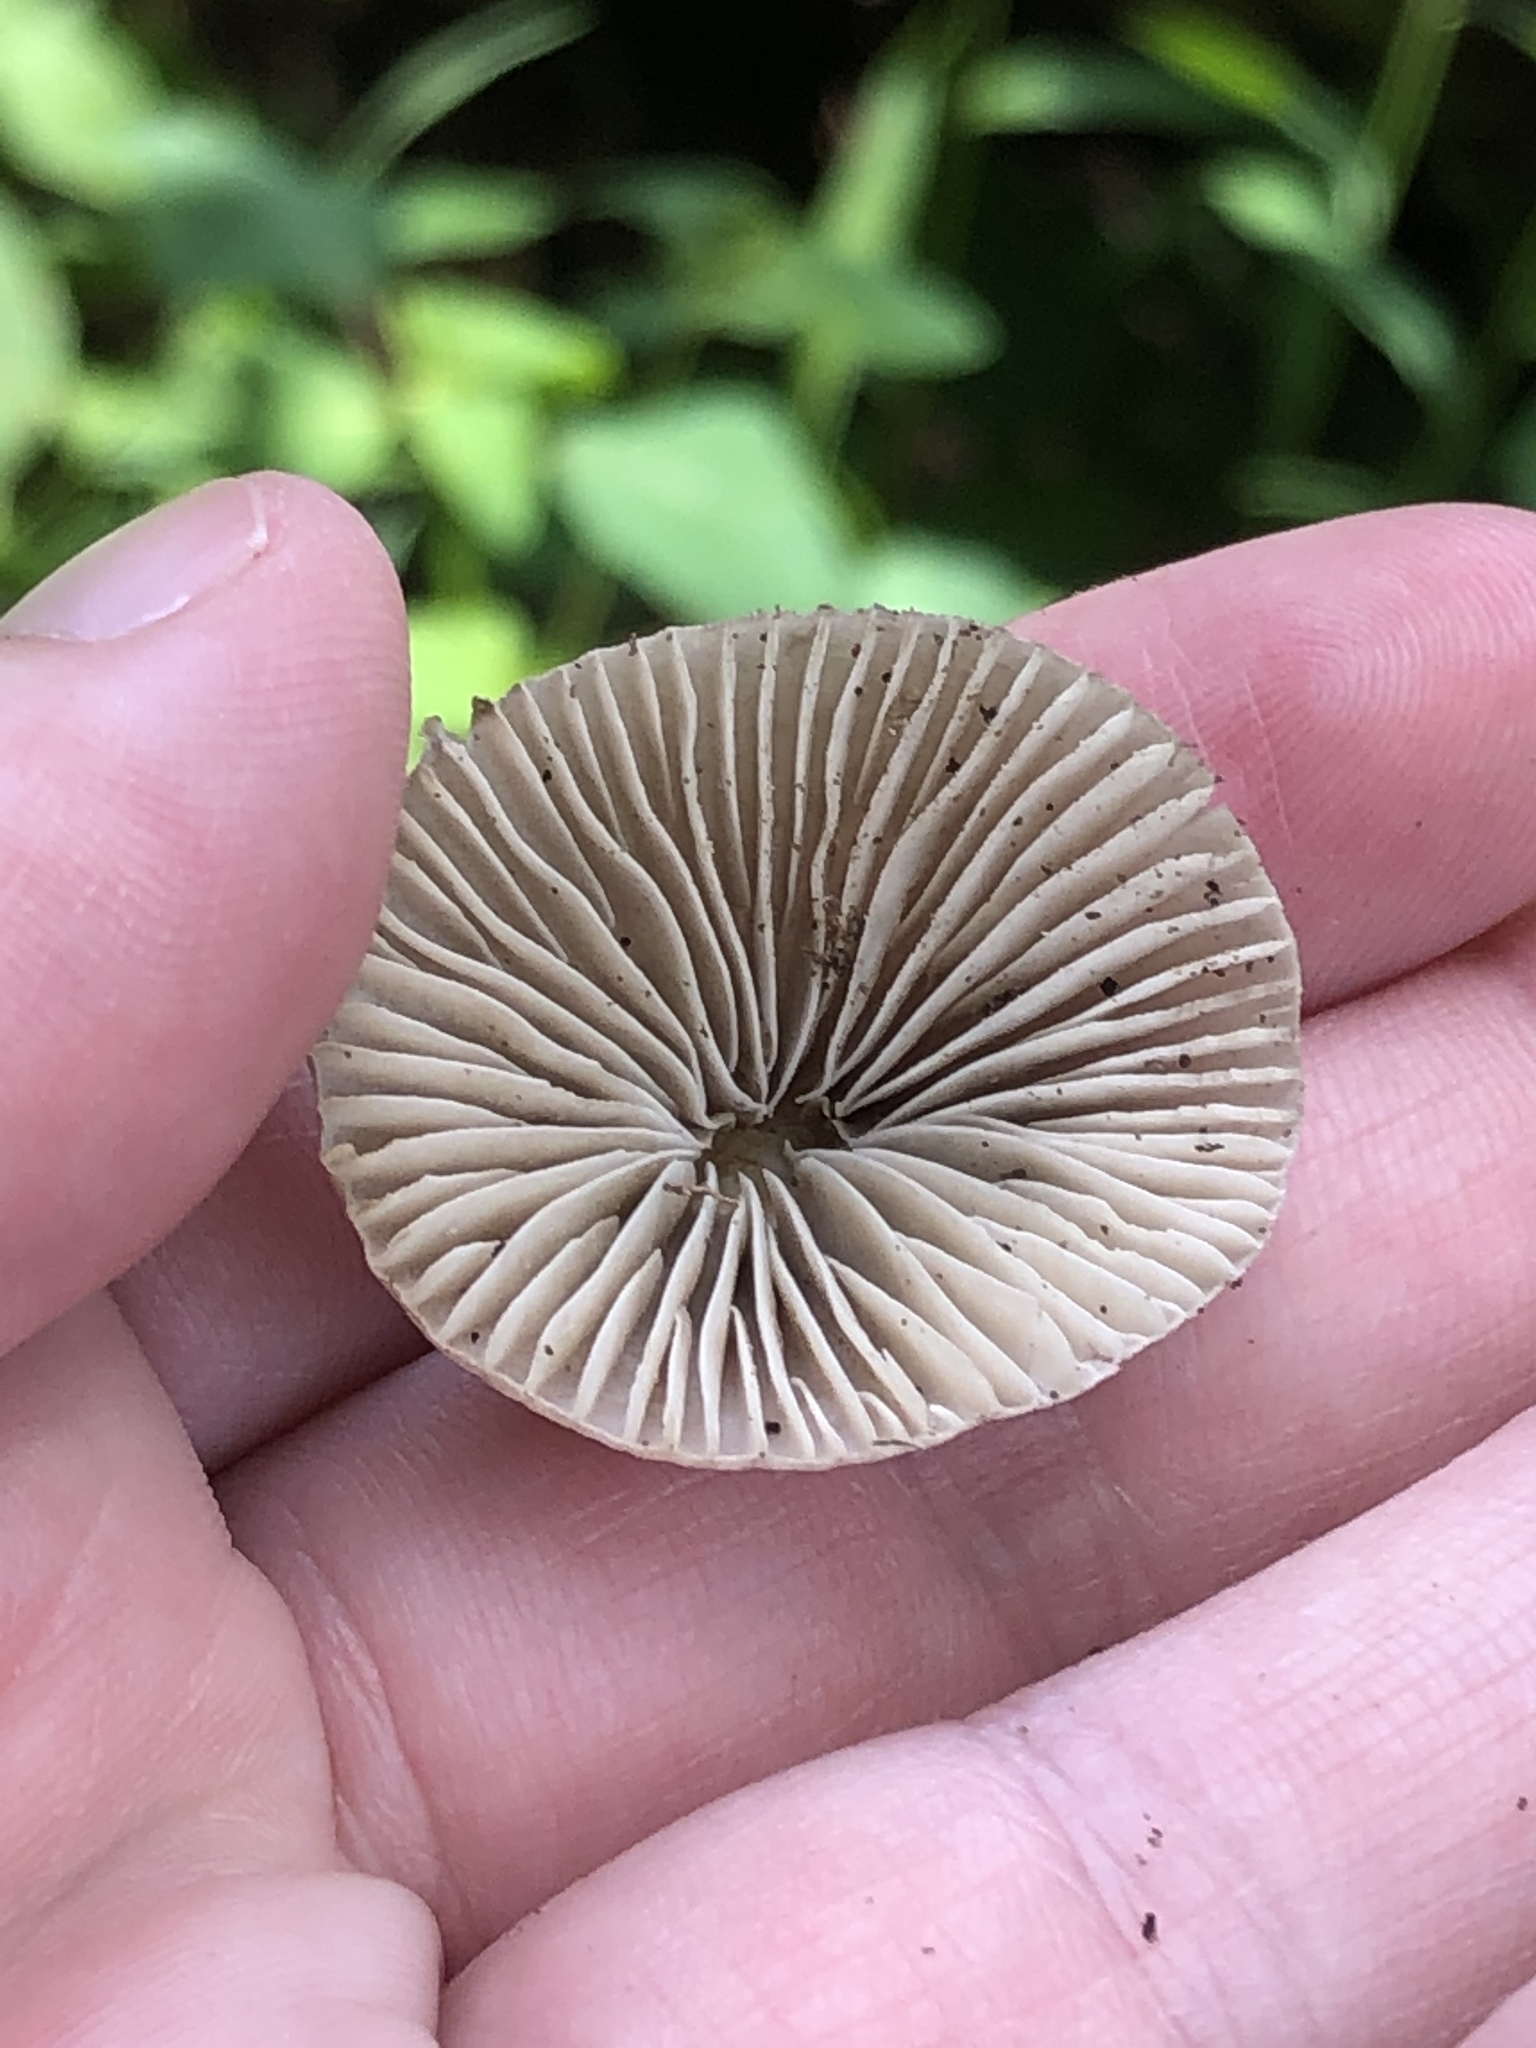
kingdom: Fungi
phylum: Basidiomycota
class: Agaricomycetes
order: Agaricales
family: Mycenaceae
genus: Mycena
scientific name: Mycena galericulata
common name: Bonnet mycena
